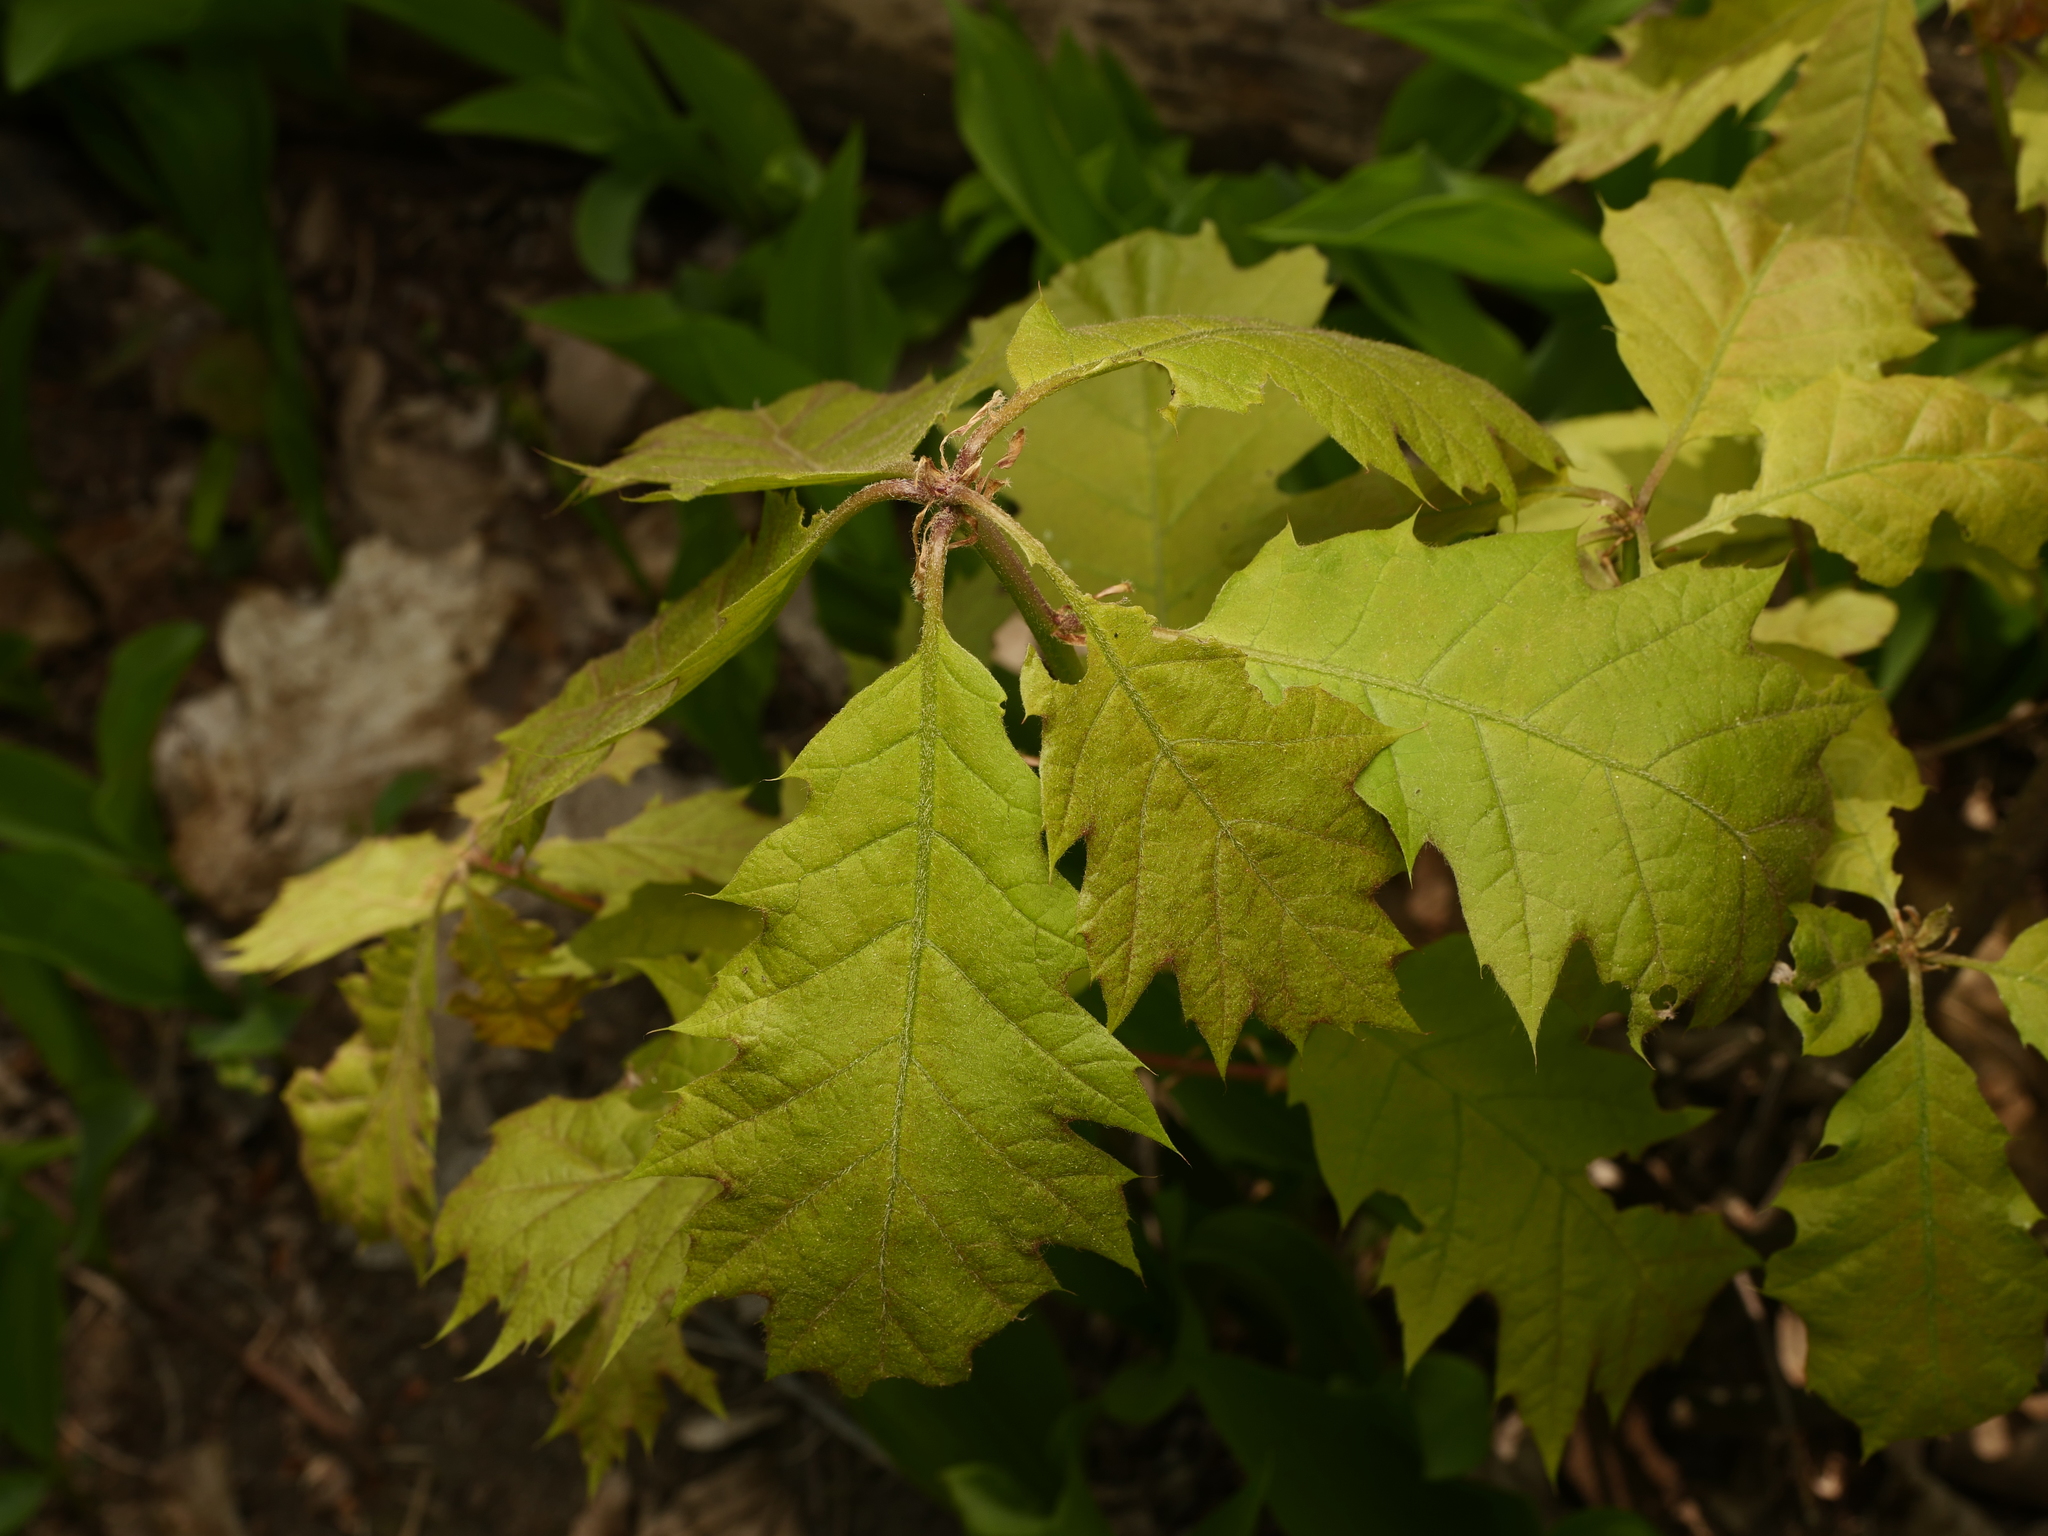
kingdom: Plantae
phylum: Tracheophyta
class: Magnoliopsida
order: Fagales
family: Fagaceae
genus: Quercus
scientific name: Quercus rubra
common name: Red oak
